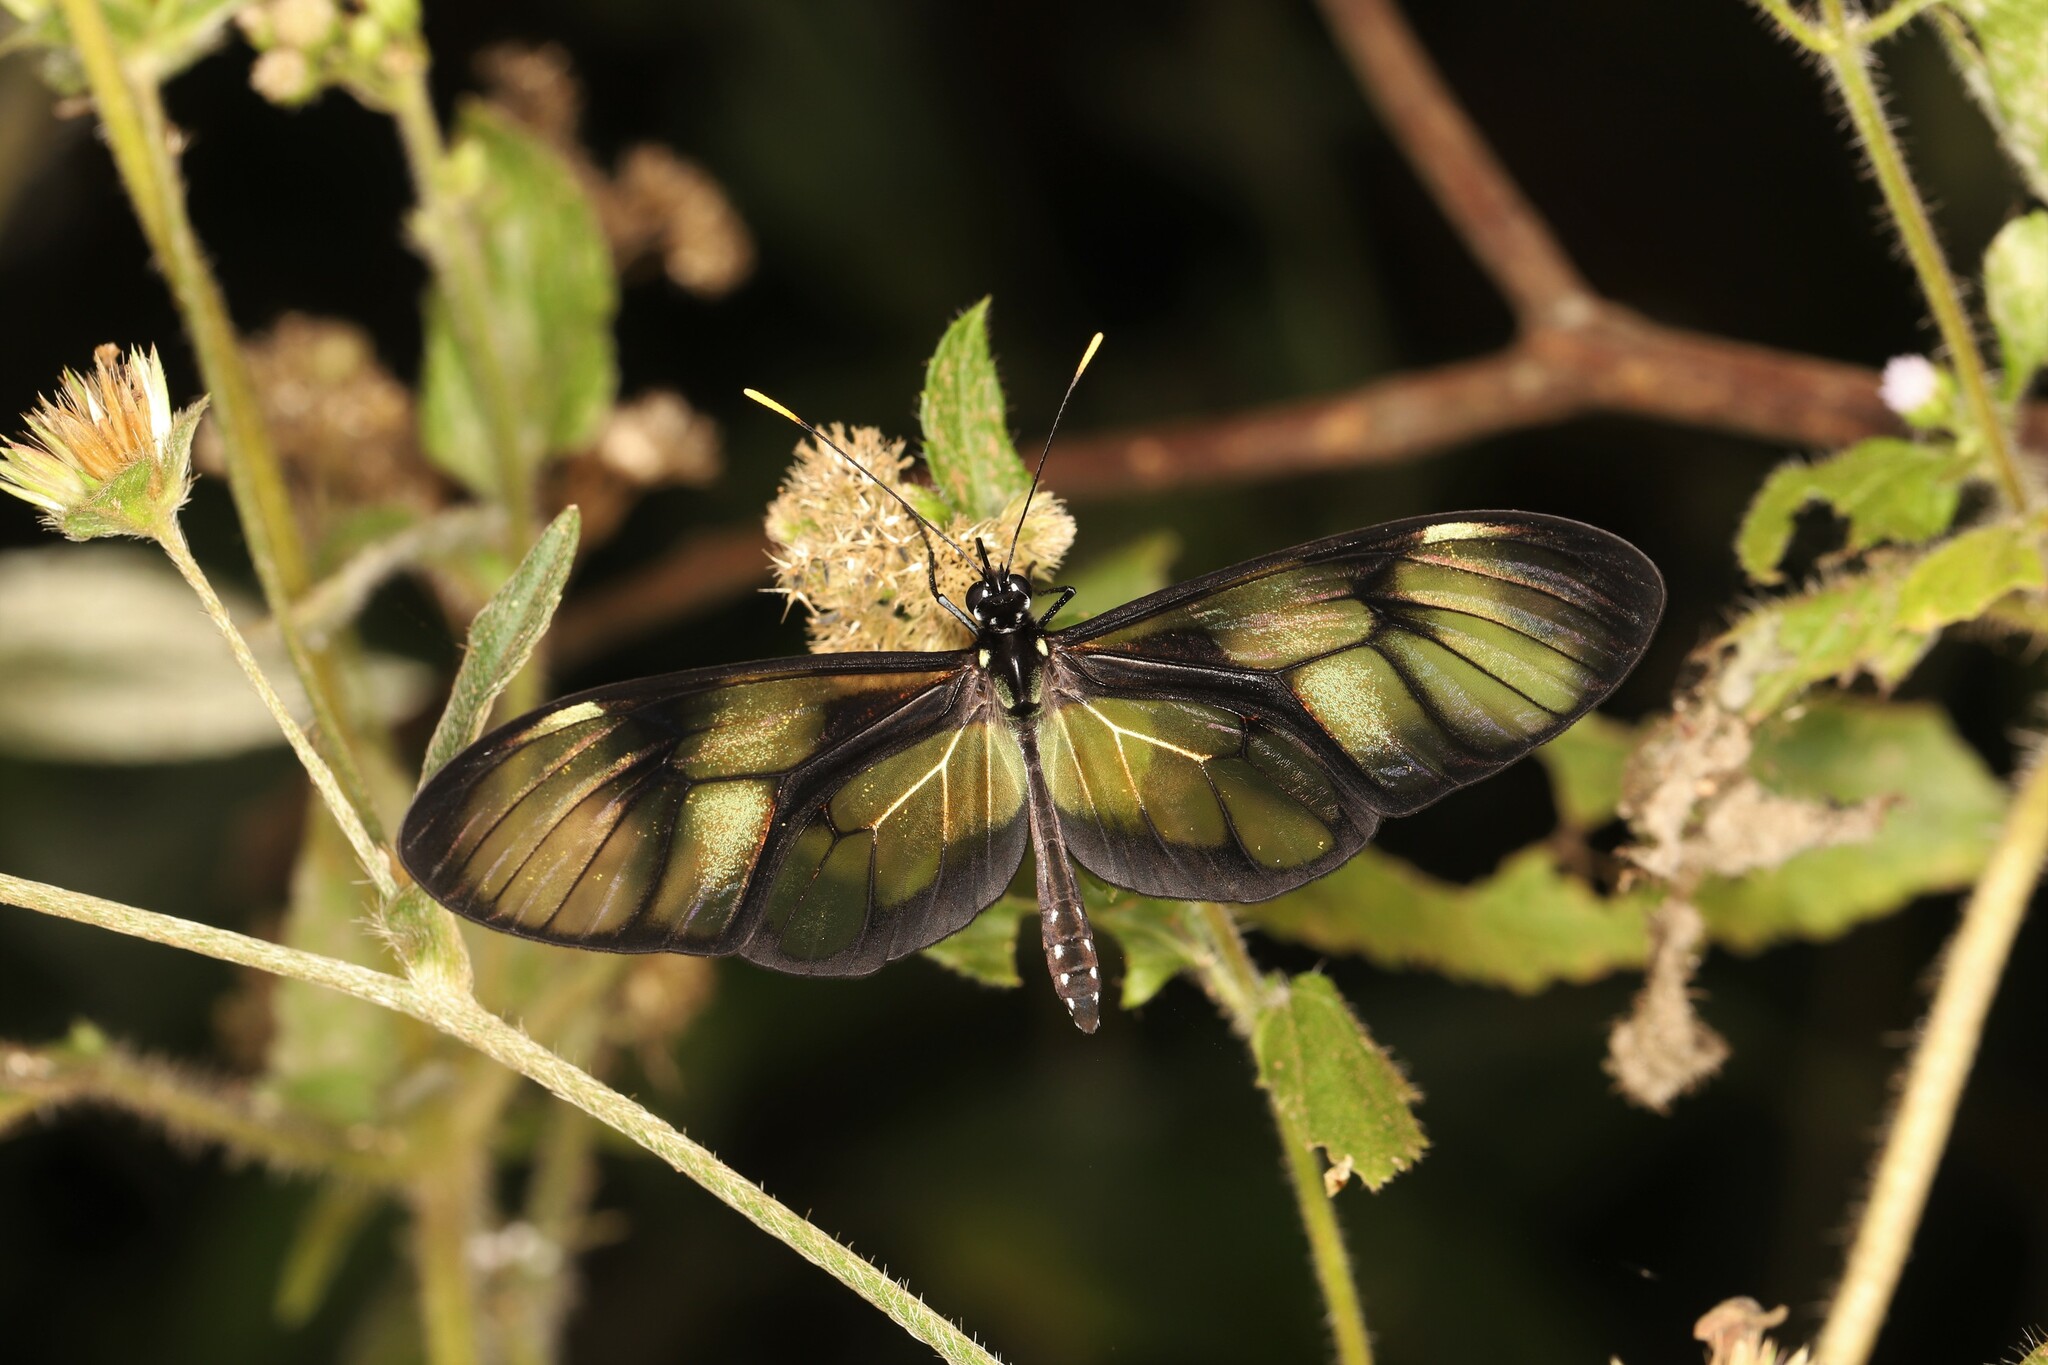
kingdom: Animalia
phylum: Arthropoda
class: Insecta
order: Lepidoptera
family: Nymphalidae
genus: Callithomia
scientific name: Callithomia lenea
